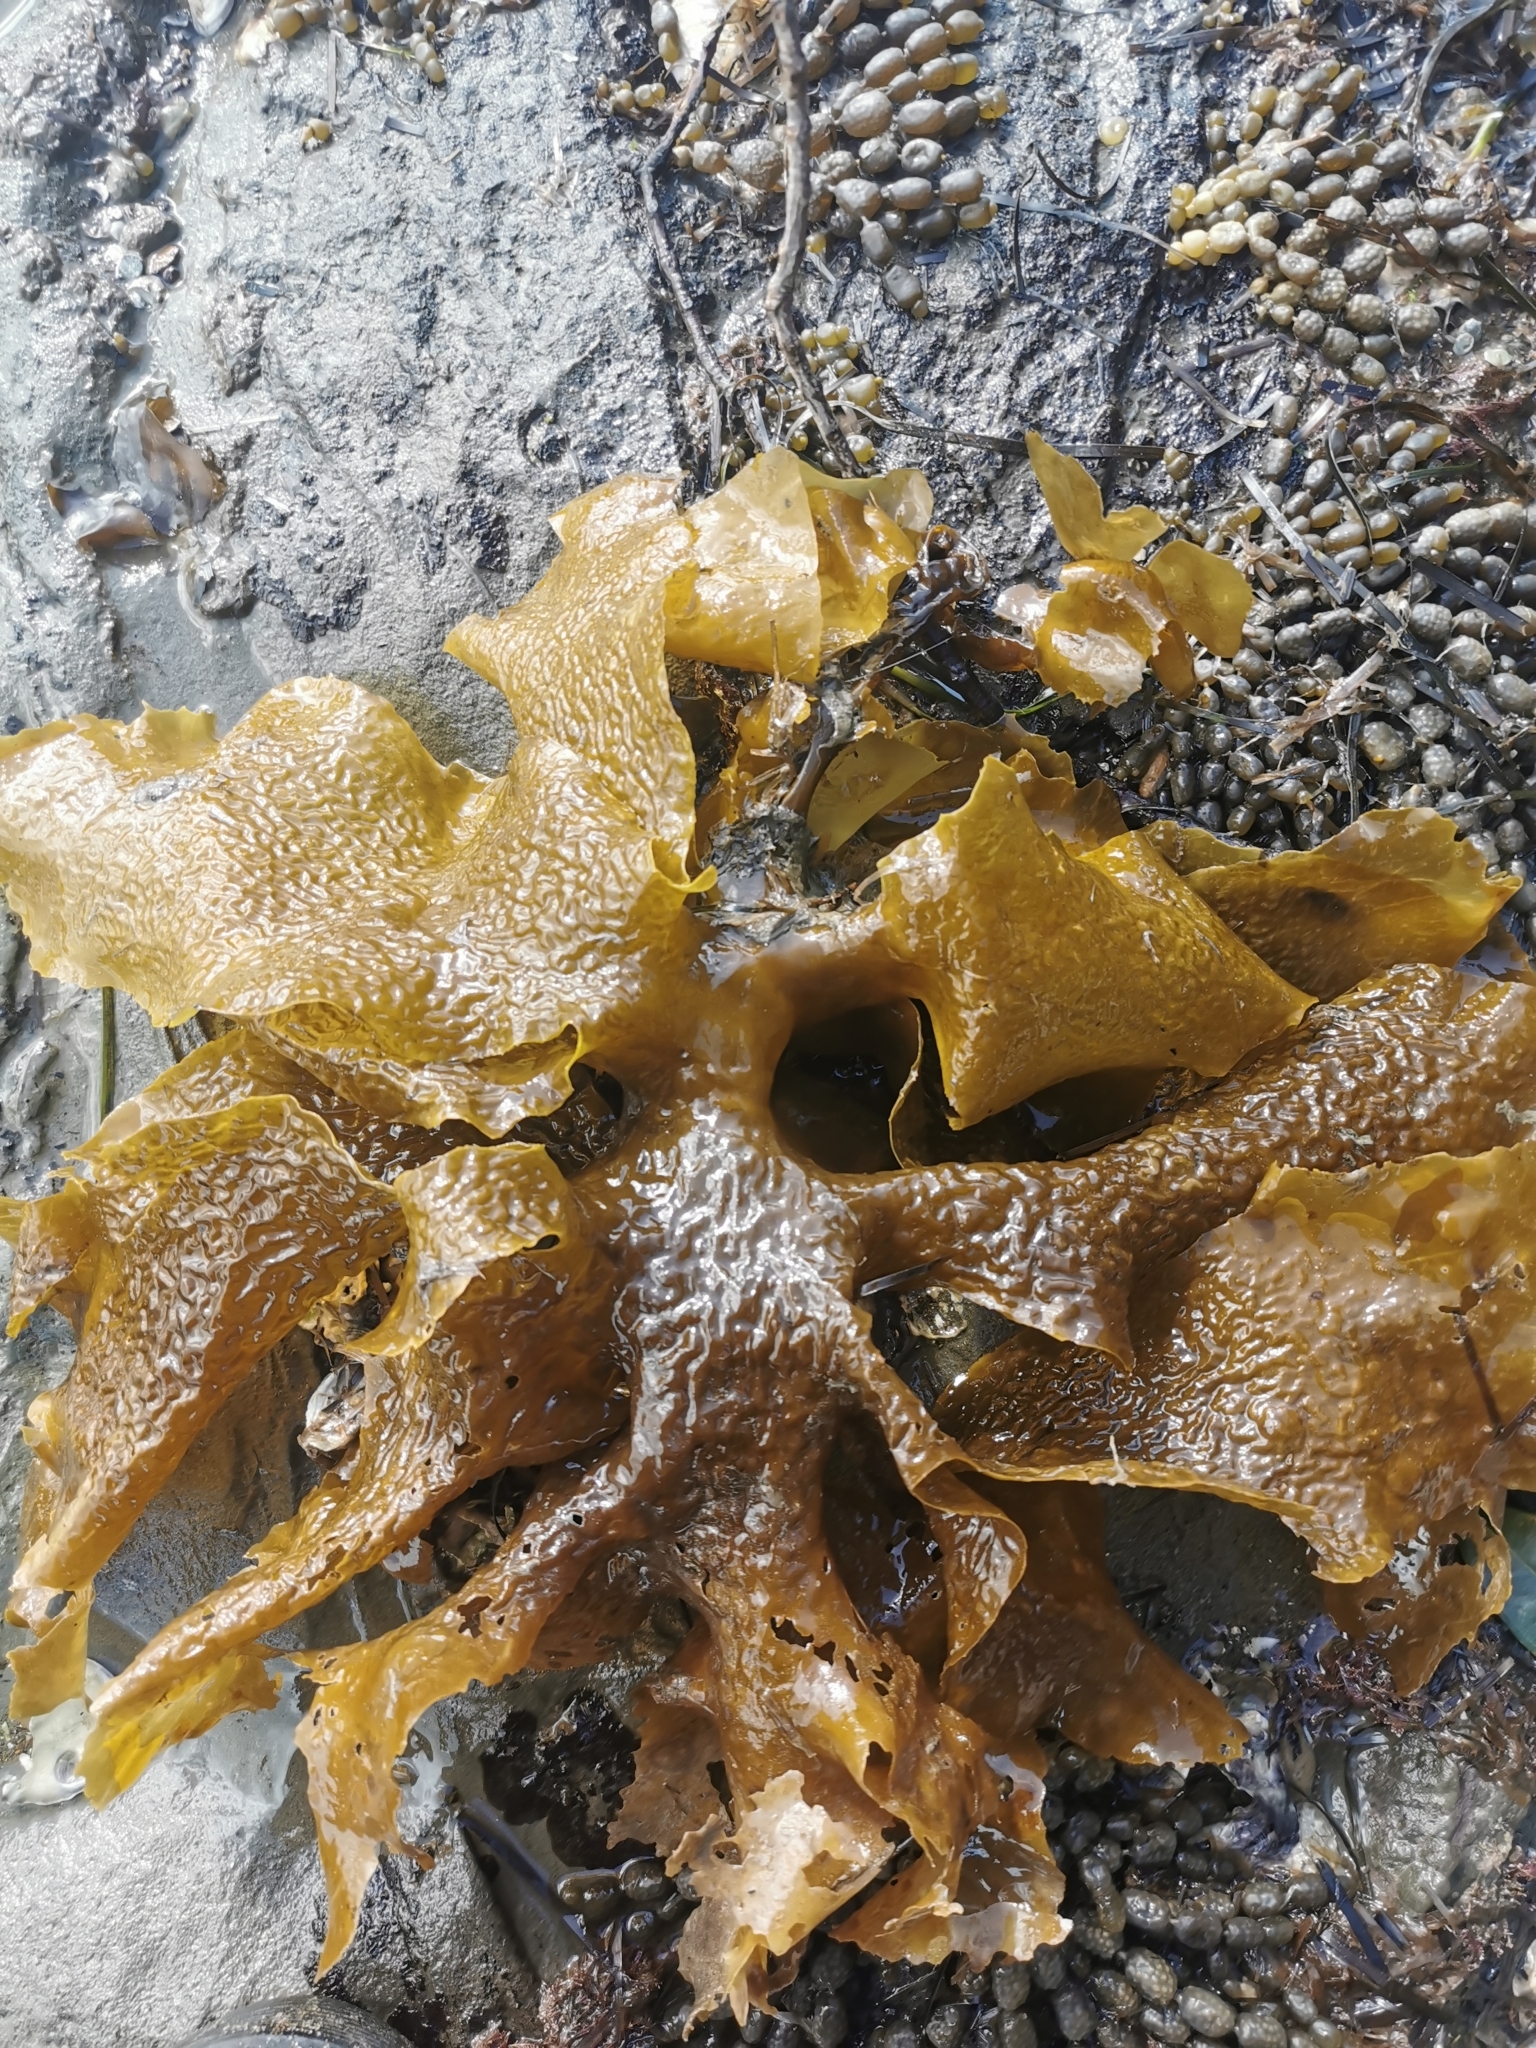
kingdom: Chromista
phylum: Ochrophyta
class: Phaeophyceae
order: Laminariales
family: Lessoniaceae
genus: Ecklonia
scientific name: Ecklonia radiata
